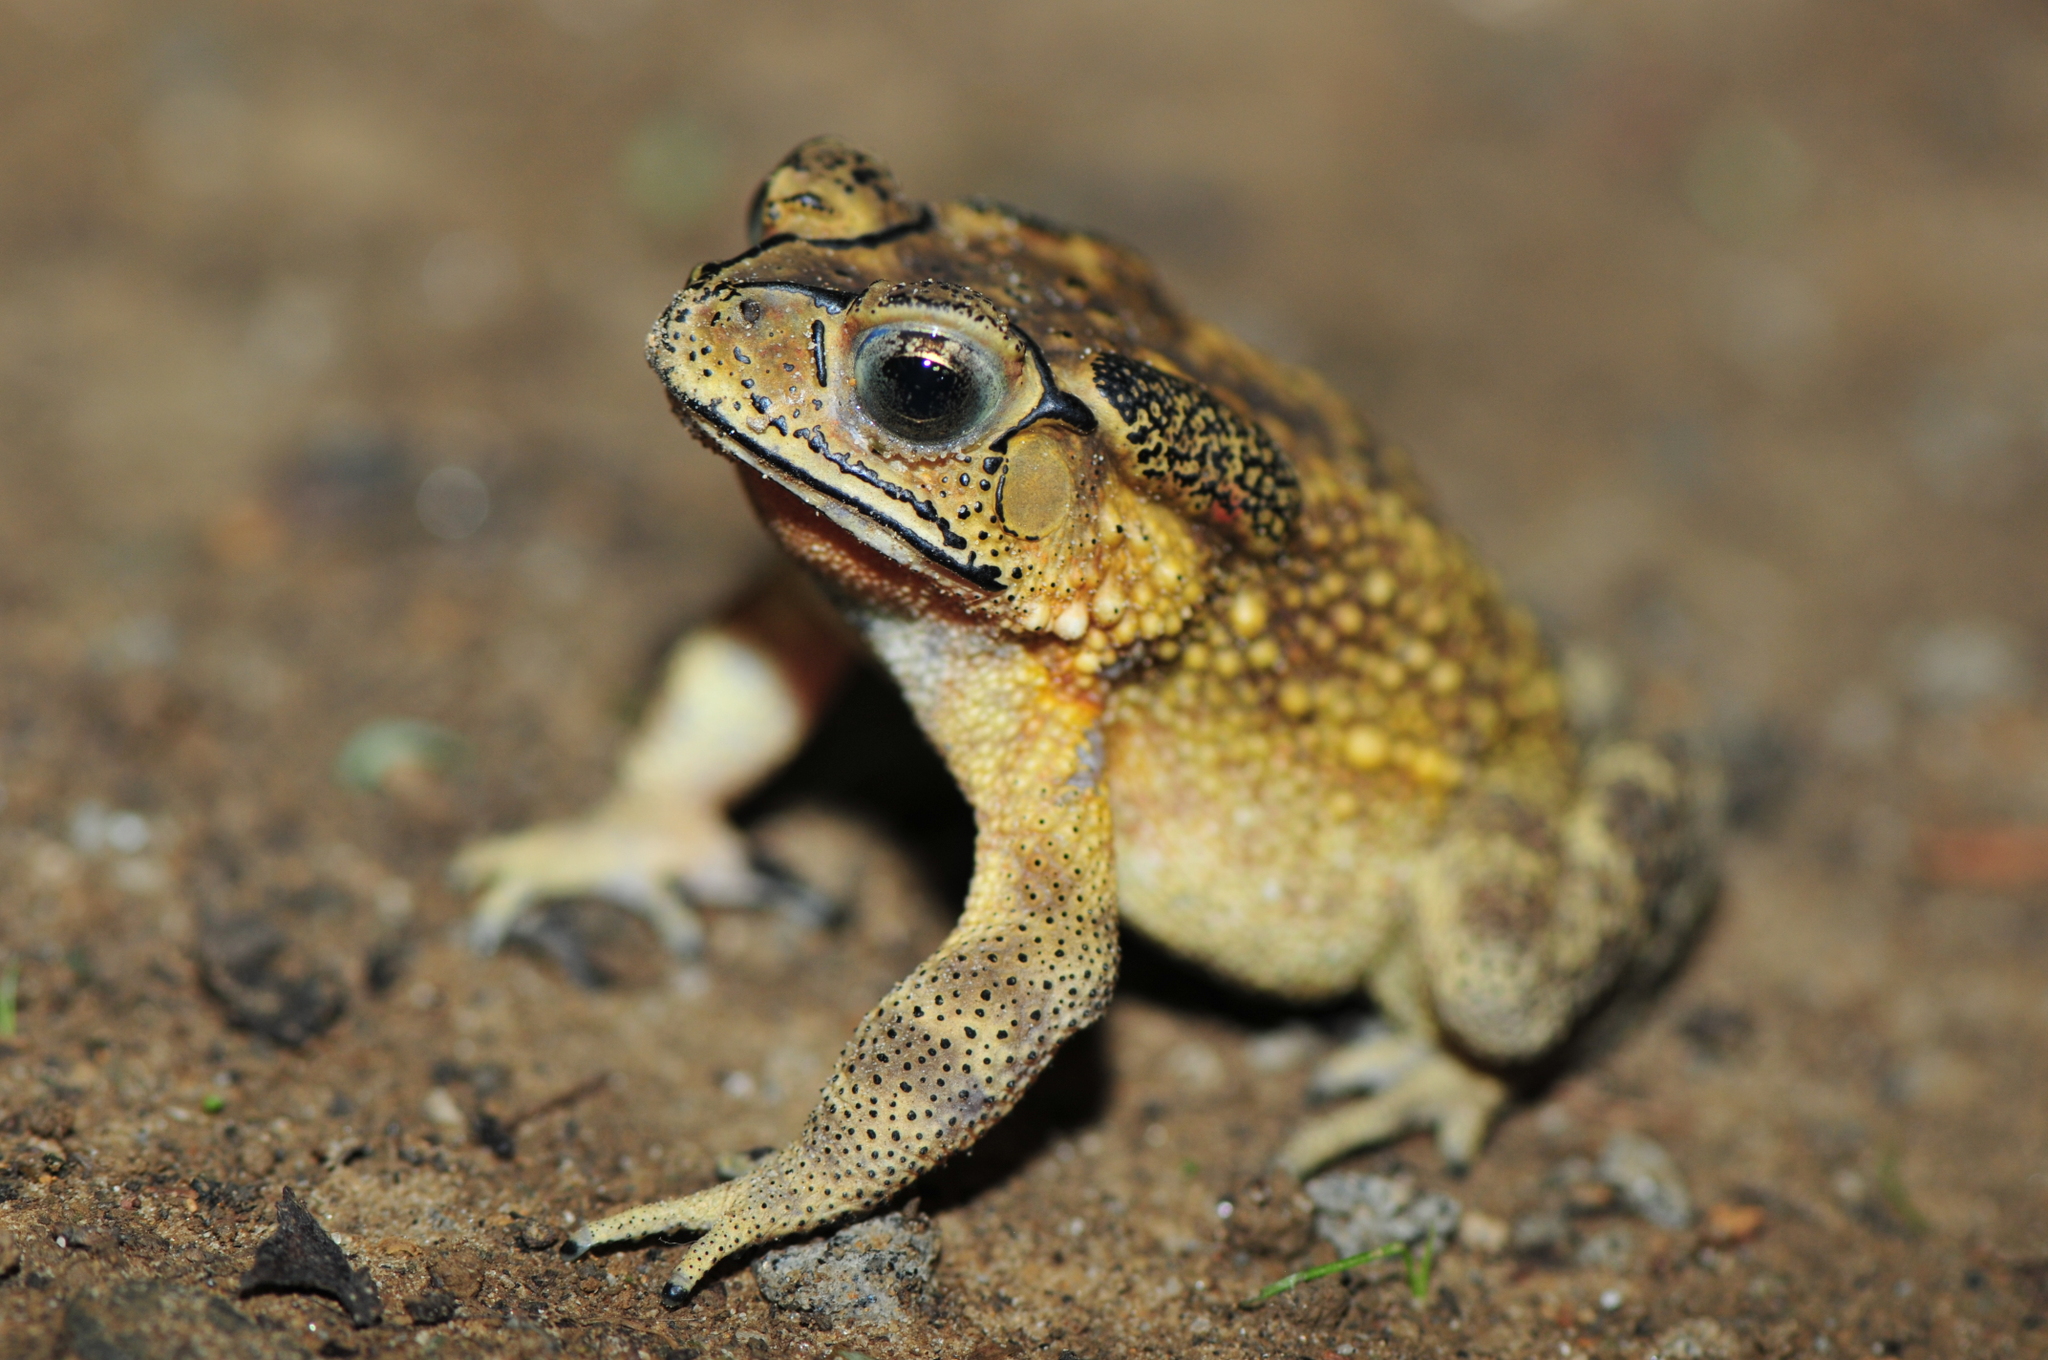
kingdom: Animalia
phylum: Chordata
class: Amphibia
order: Anura
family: Bufonidae
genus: Duttaphrynus
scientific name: Duttaphrynus melanostictus
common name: Common sunda toad
